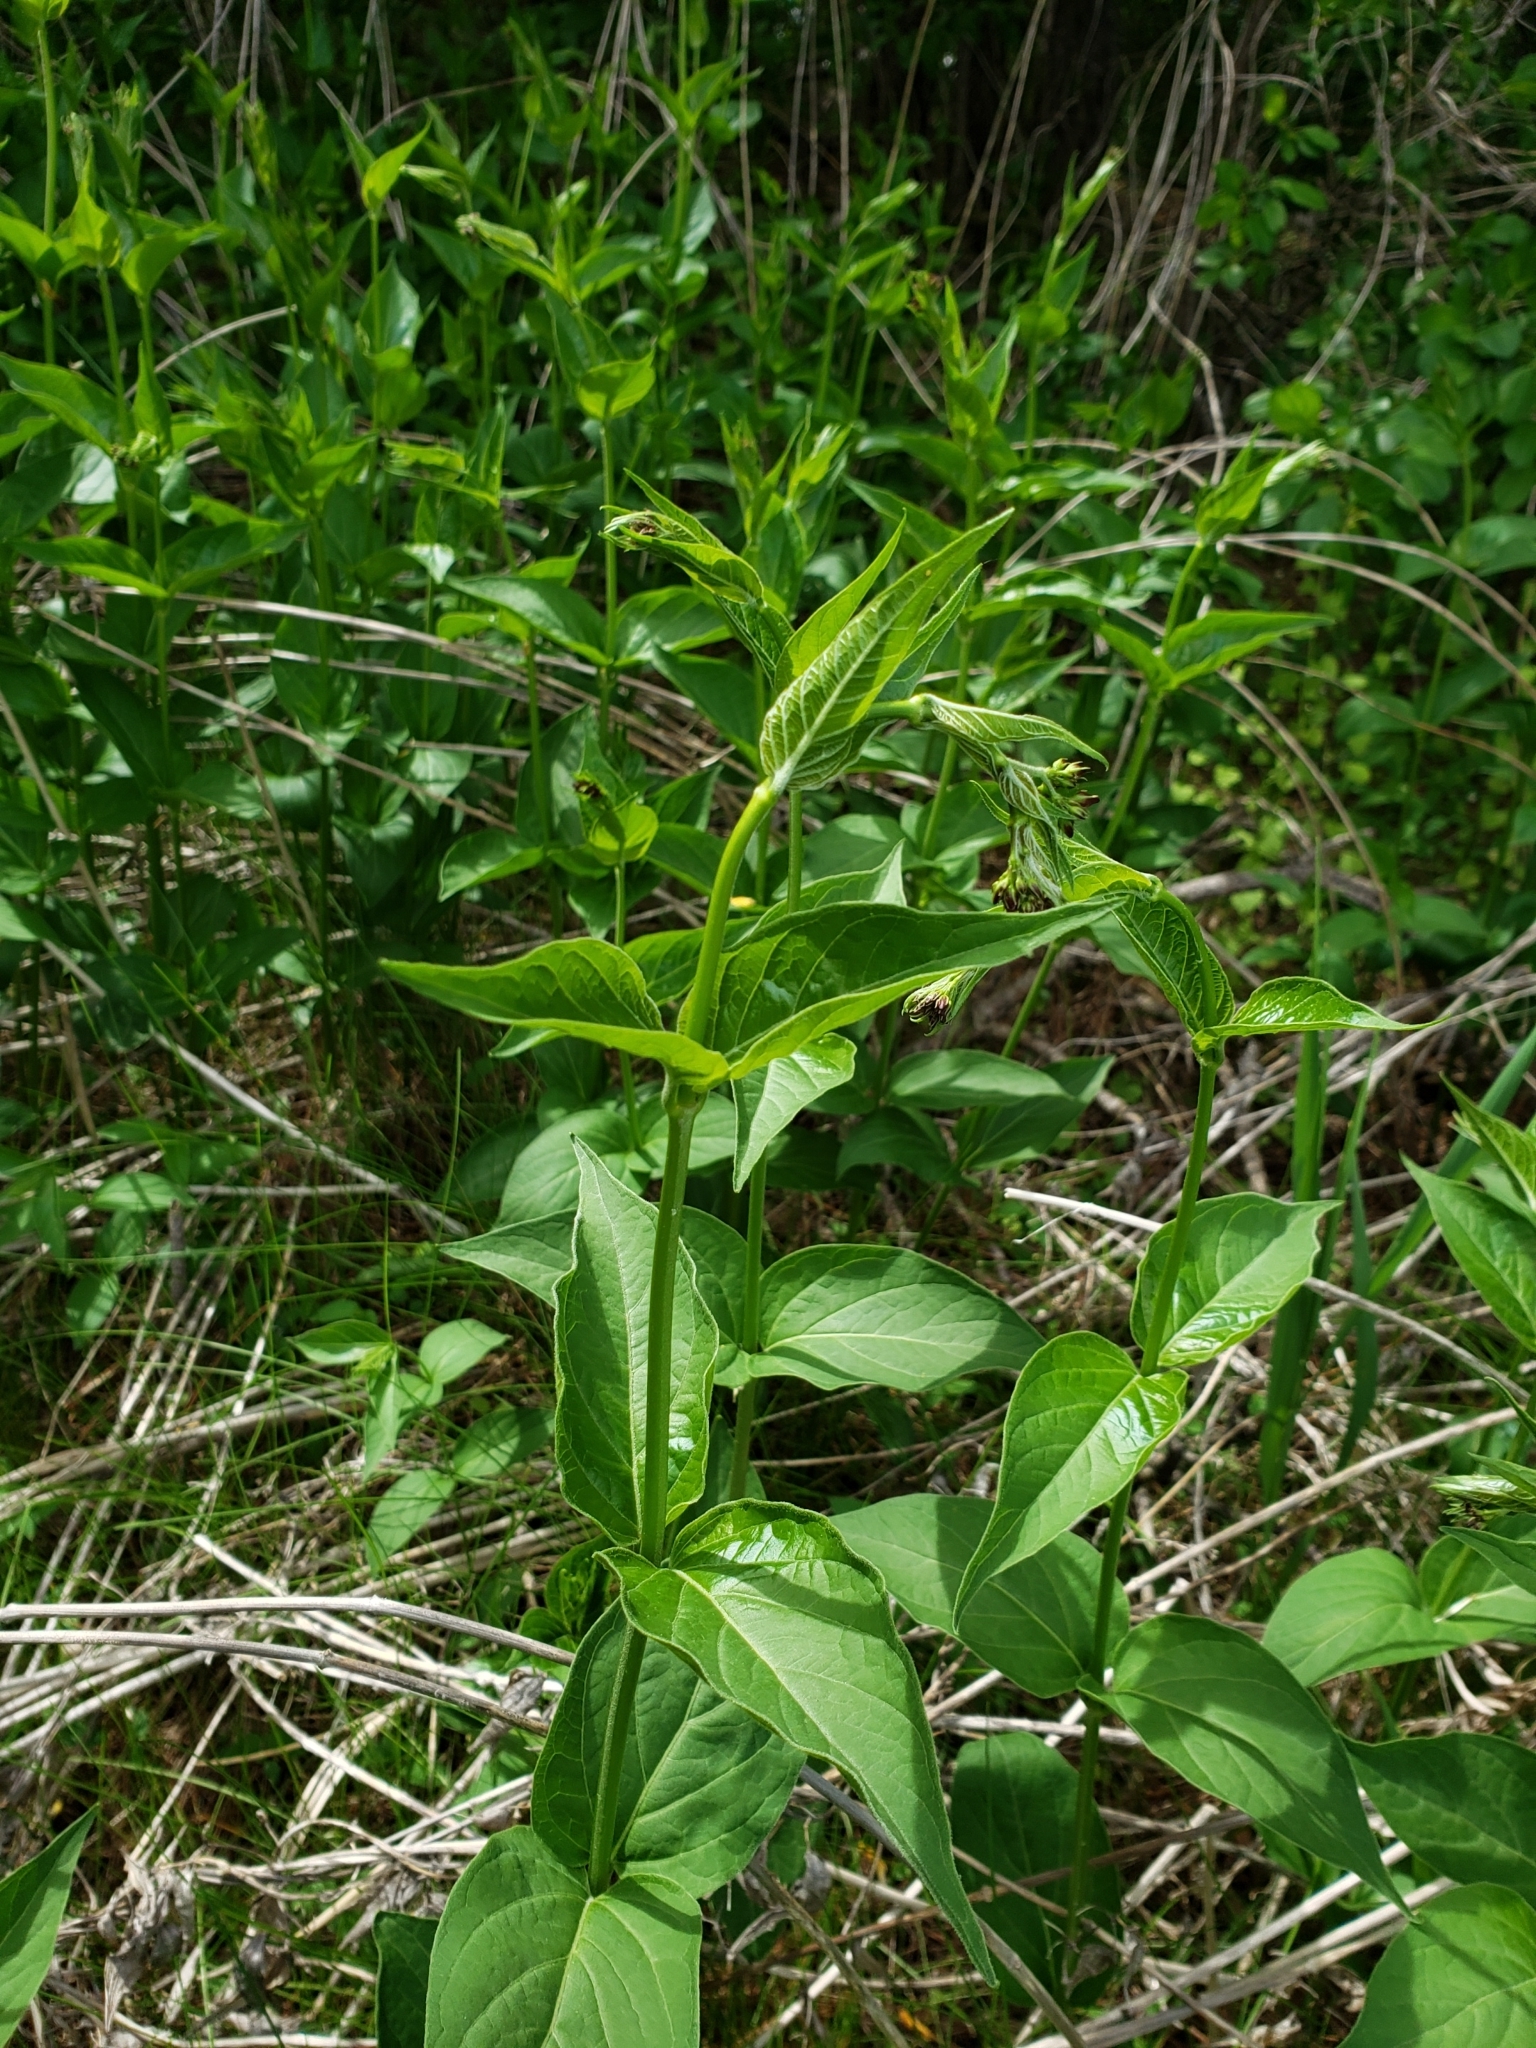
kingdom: Plantae
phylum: Tracheophyta
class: Magnoliopsida
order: Gentianales
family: Apocynaceae
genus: Vincetoxicum
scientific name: Vincetoxicum rossicum
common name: Dog-strangling vine
